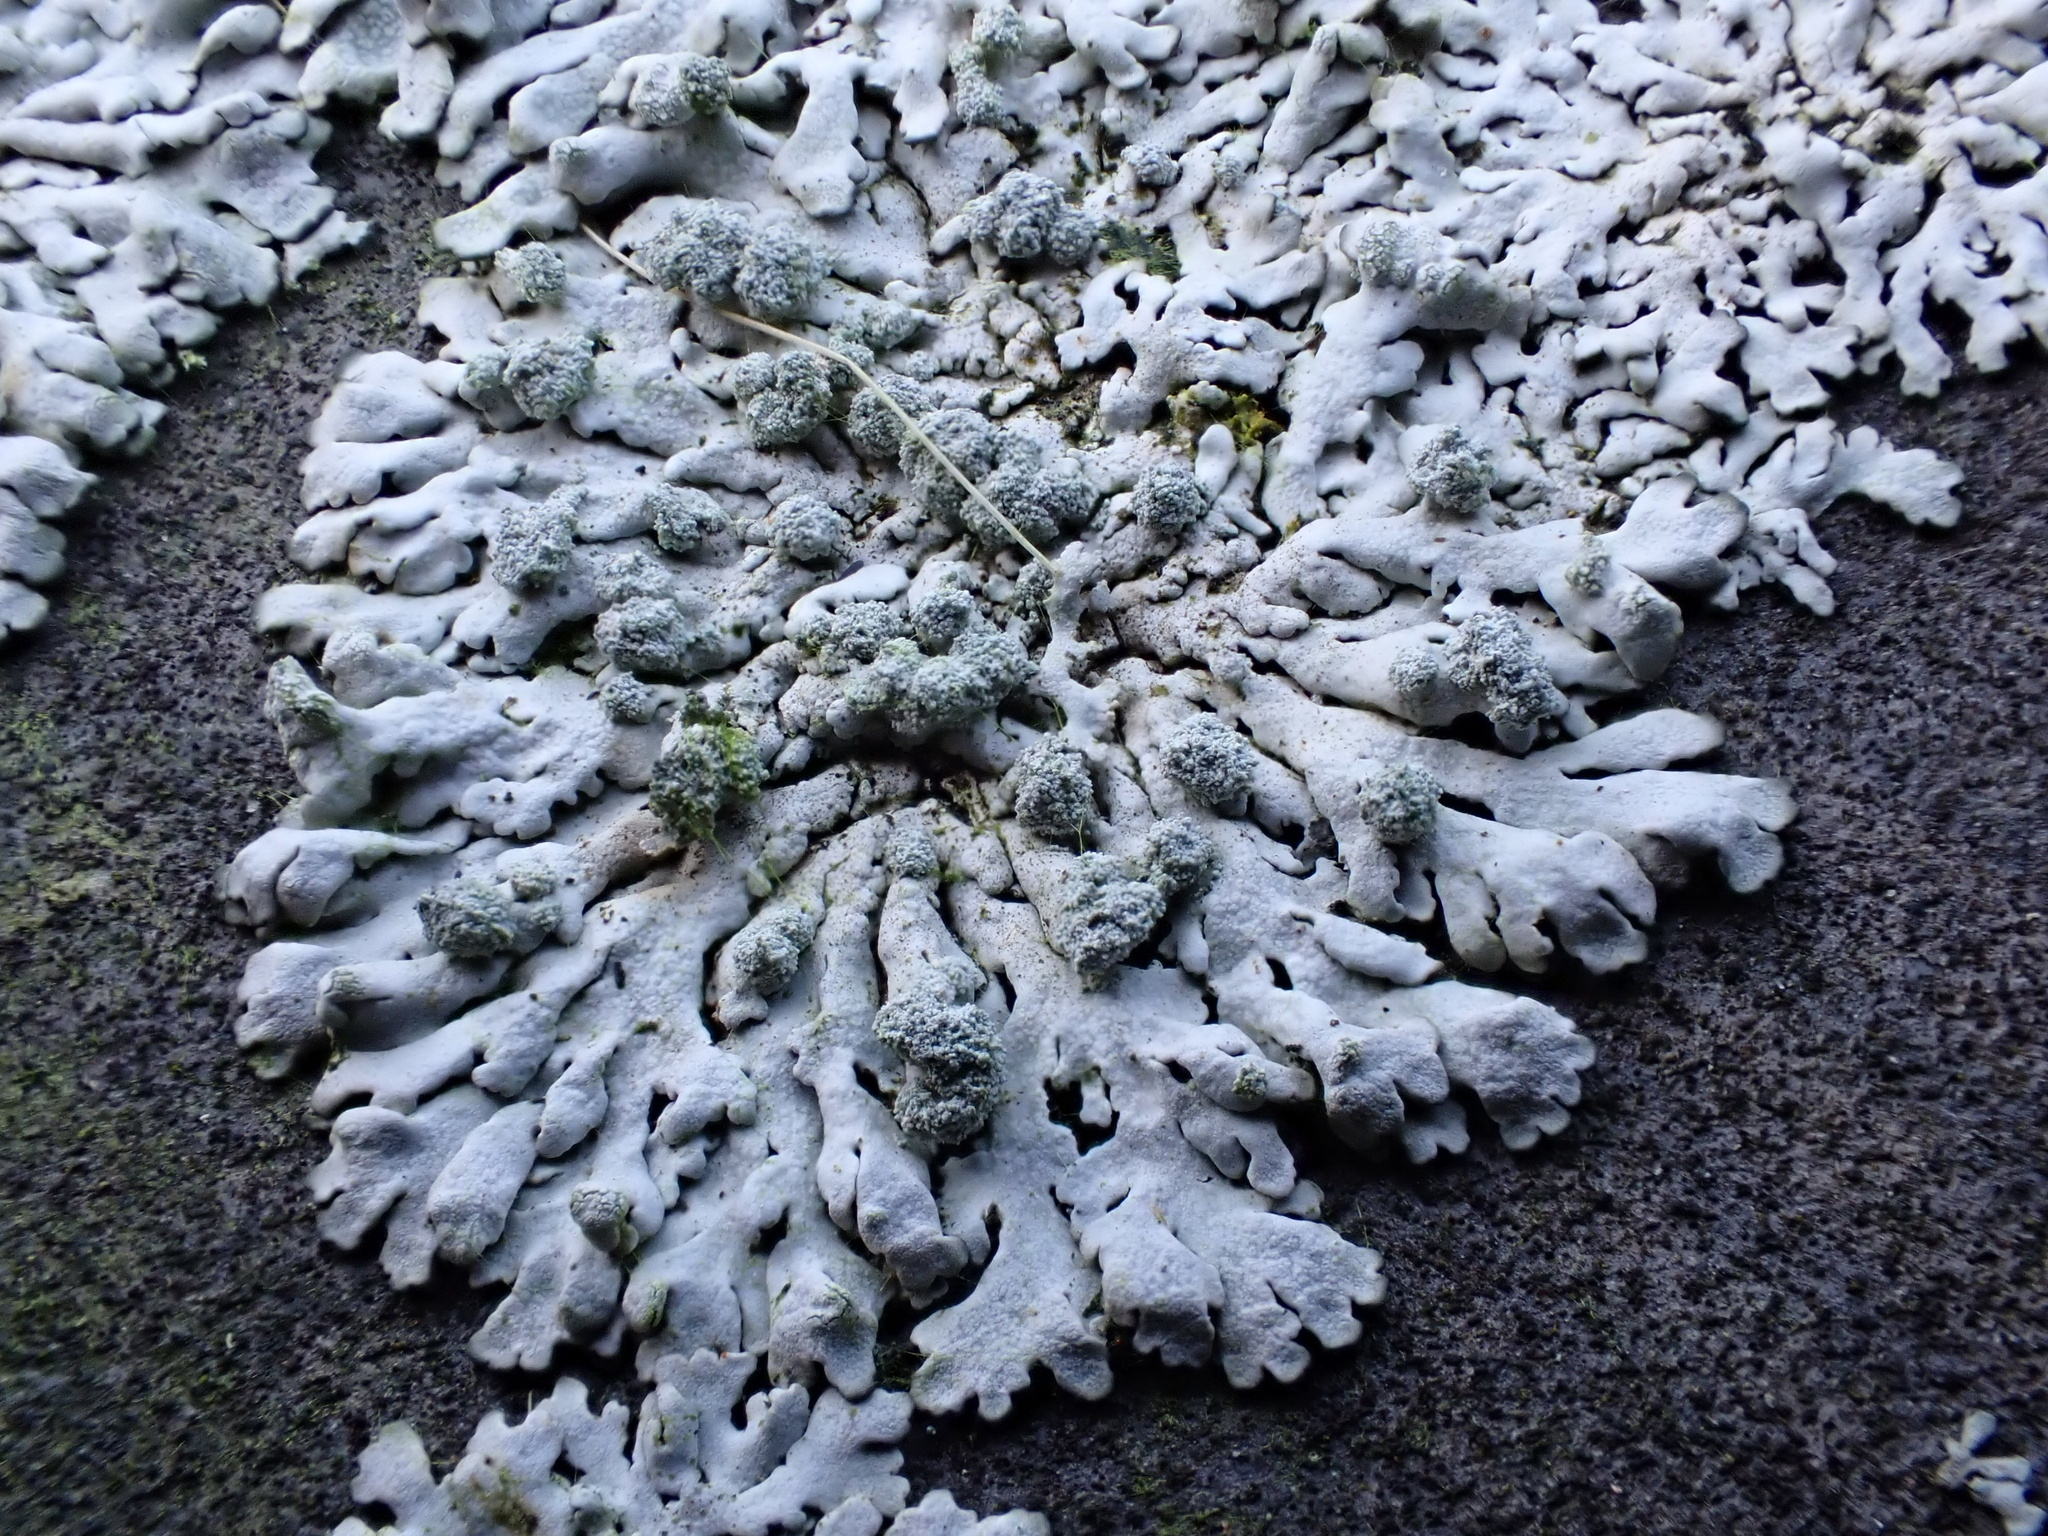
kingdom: Fungi
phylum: Ascomycota
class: Lecanoromycetes
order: Caliciales
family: Physciaceae
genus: Physcia
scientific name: Physcia caesia
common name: Blue-gray rosette lichen
